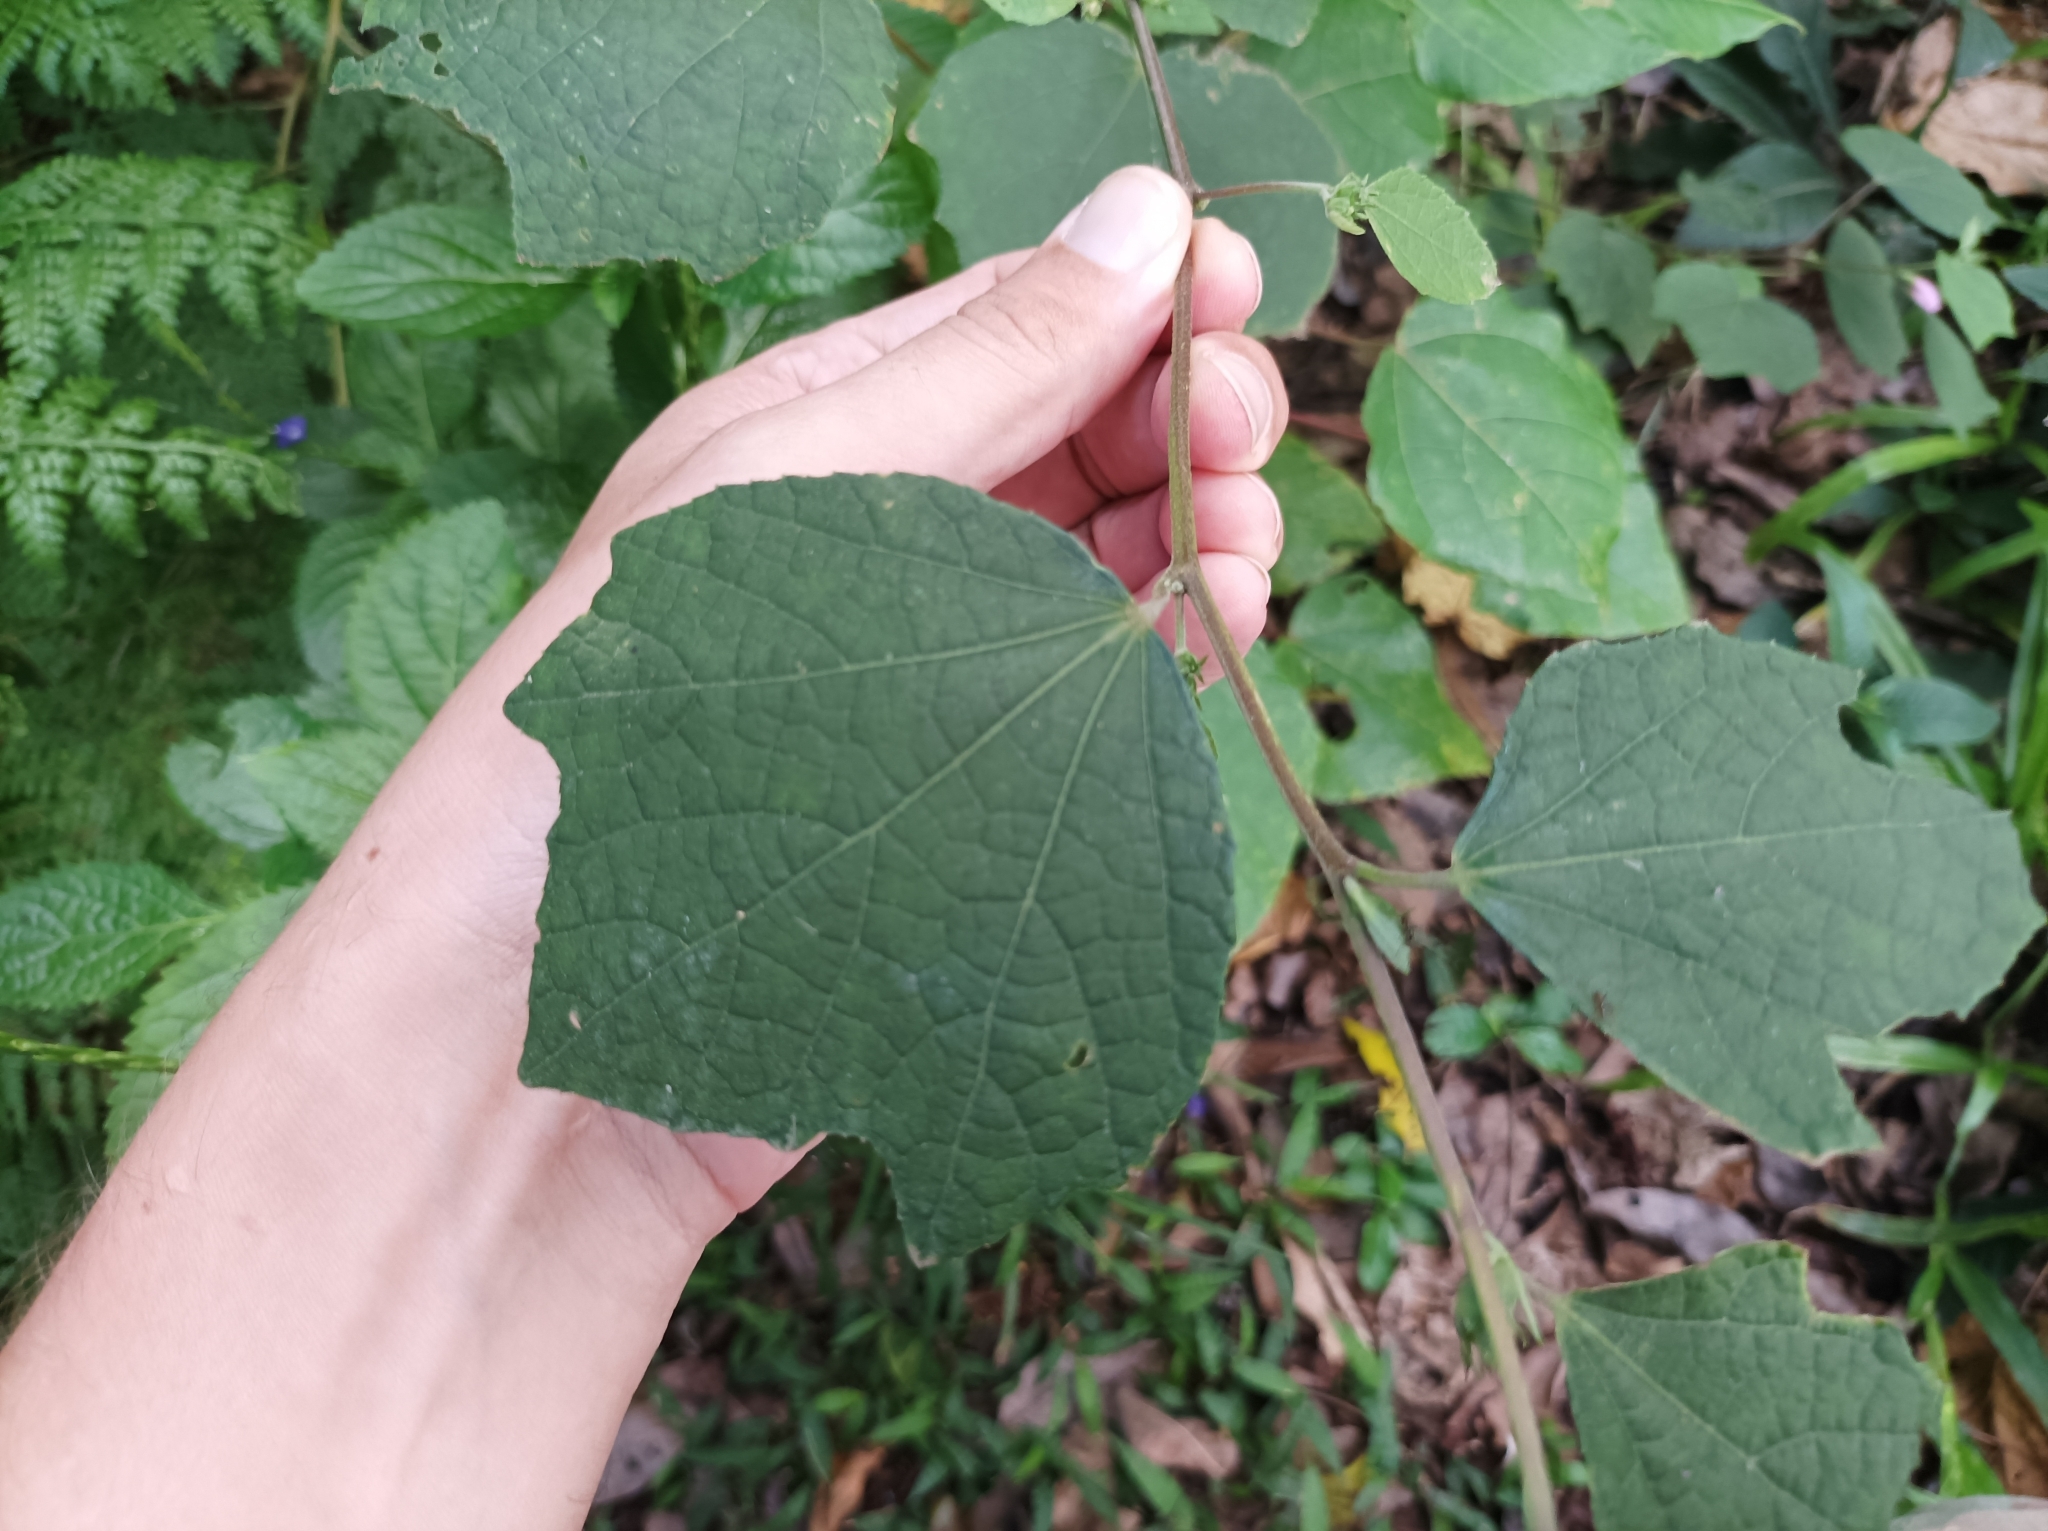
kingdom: Plantae
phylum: Tracheophyta
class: Magnoliopsida
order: Malvales
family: Malvaceae
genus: Urena
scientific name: Urena lobata
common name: Caesarweed
